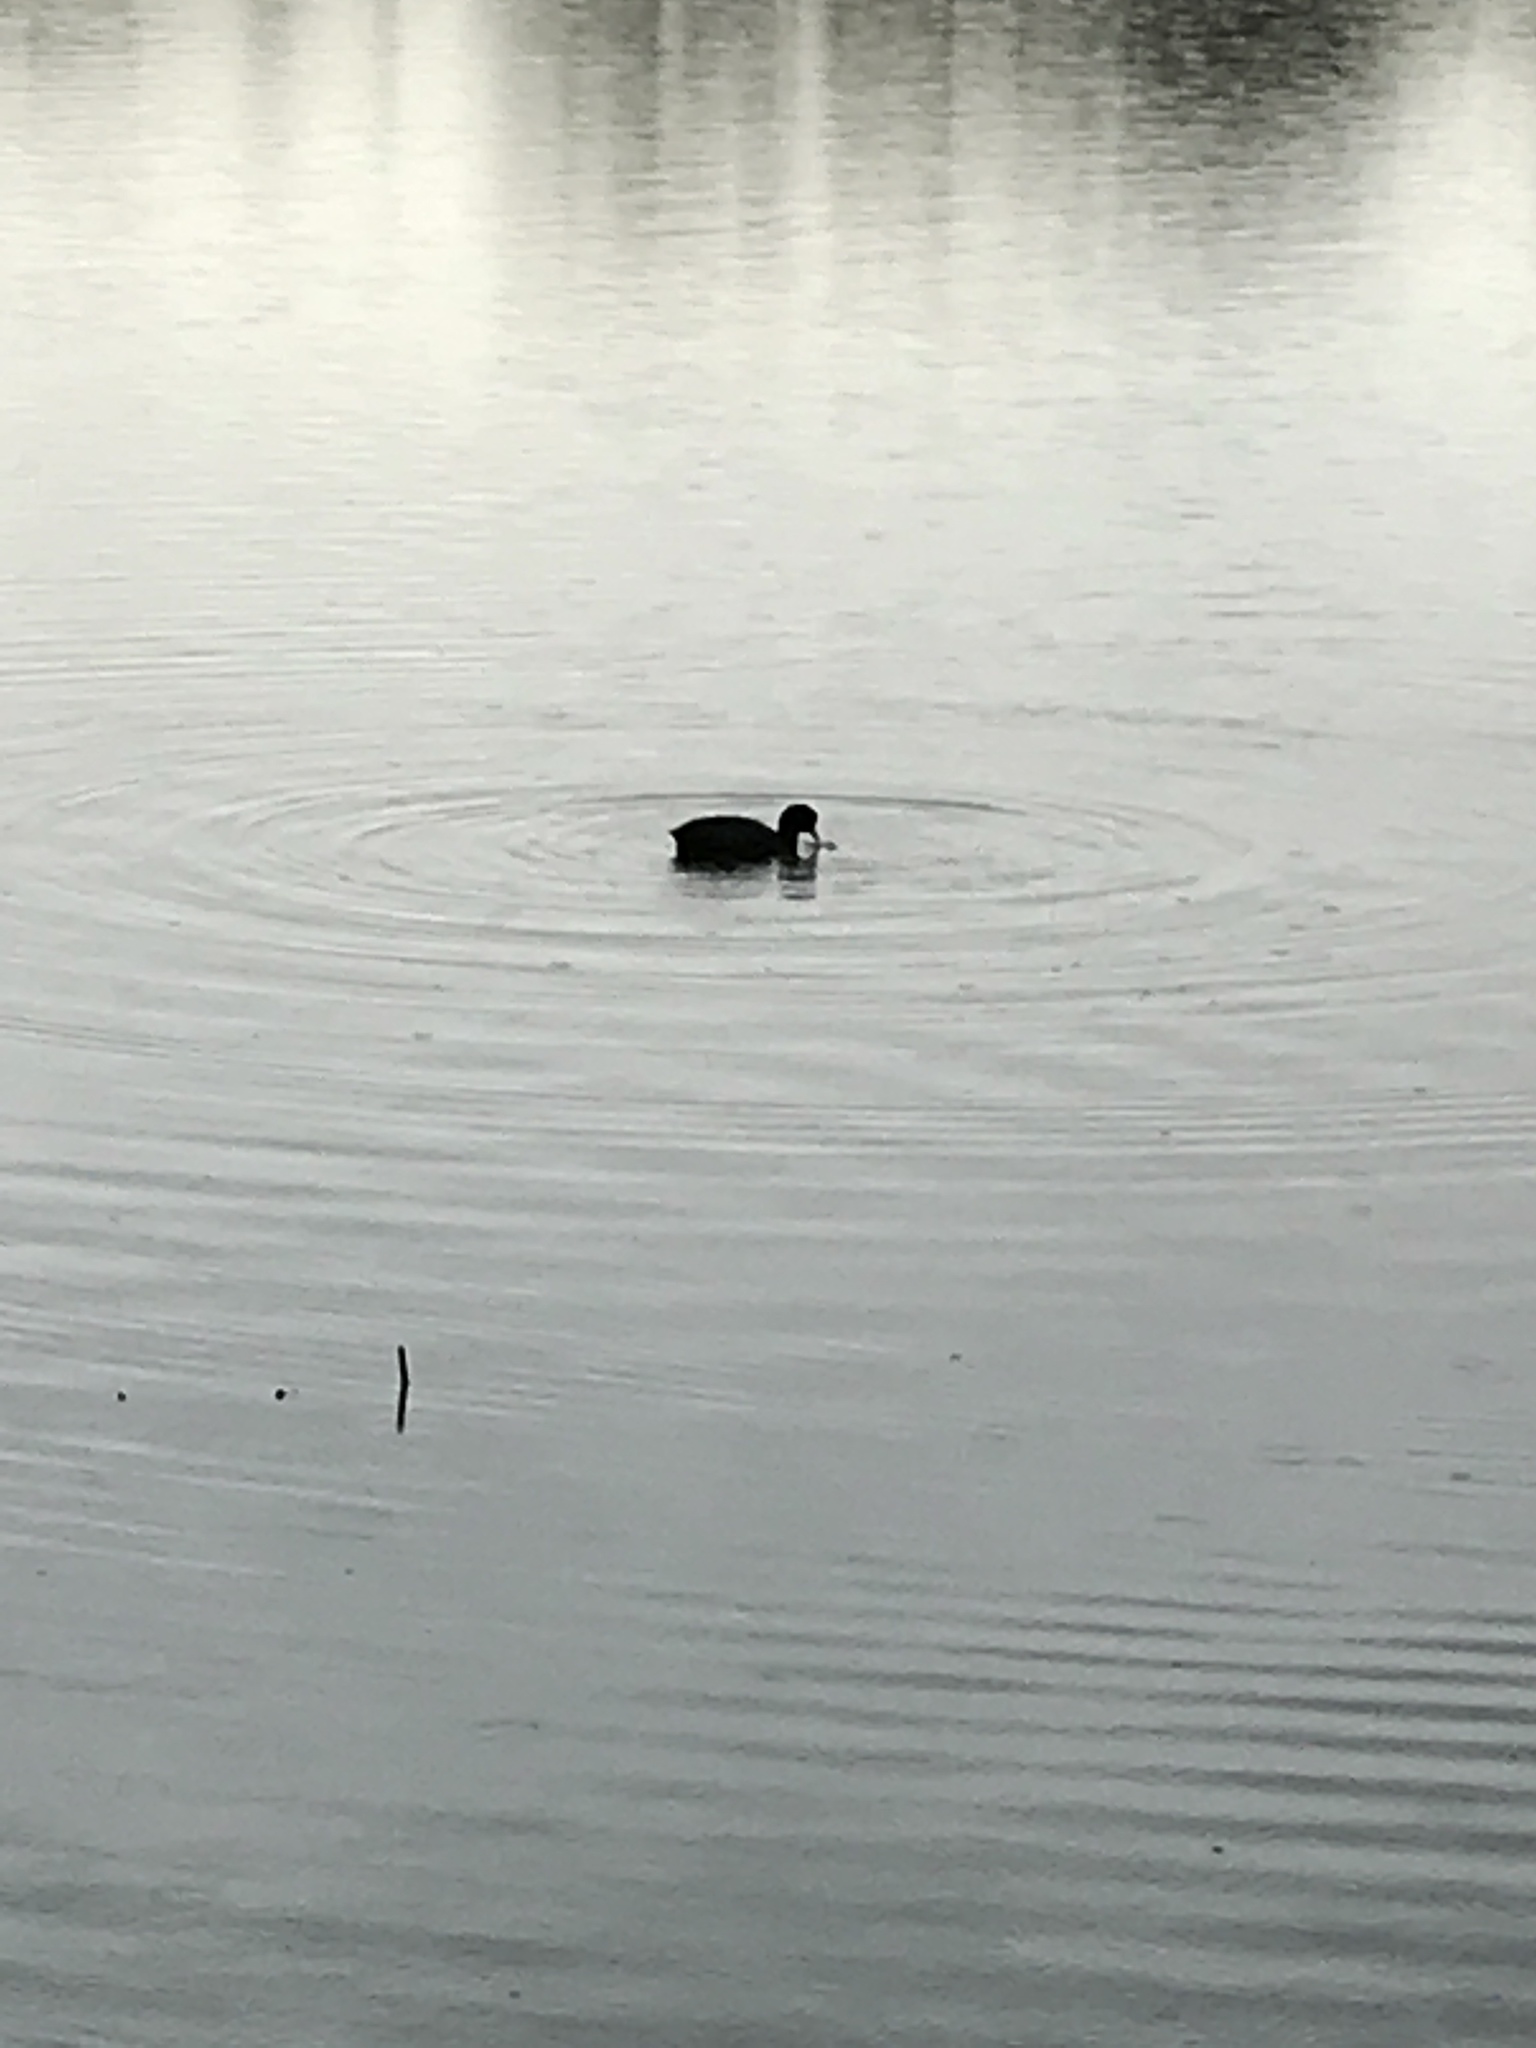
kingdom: Animalia
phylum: Chordata
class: Aves
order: Gruiformes
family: Rallidae
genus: Fulica
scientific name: Fulica atra
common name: Eurasian coot
